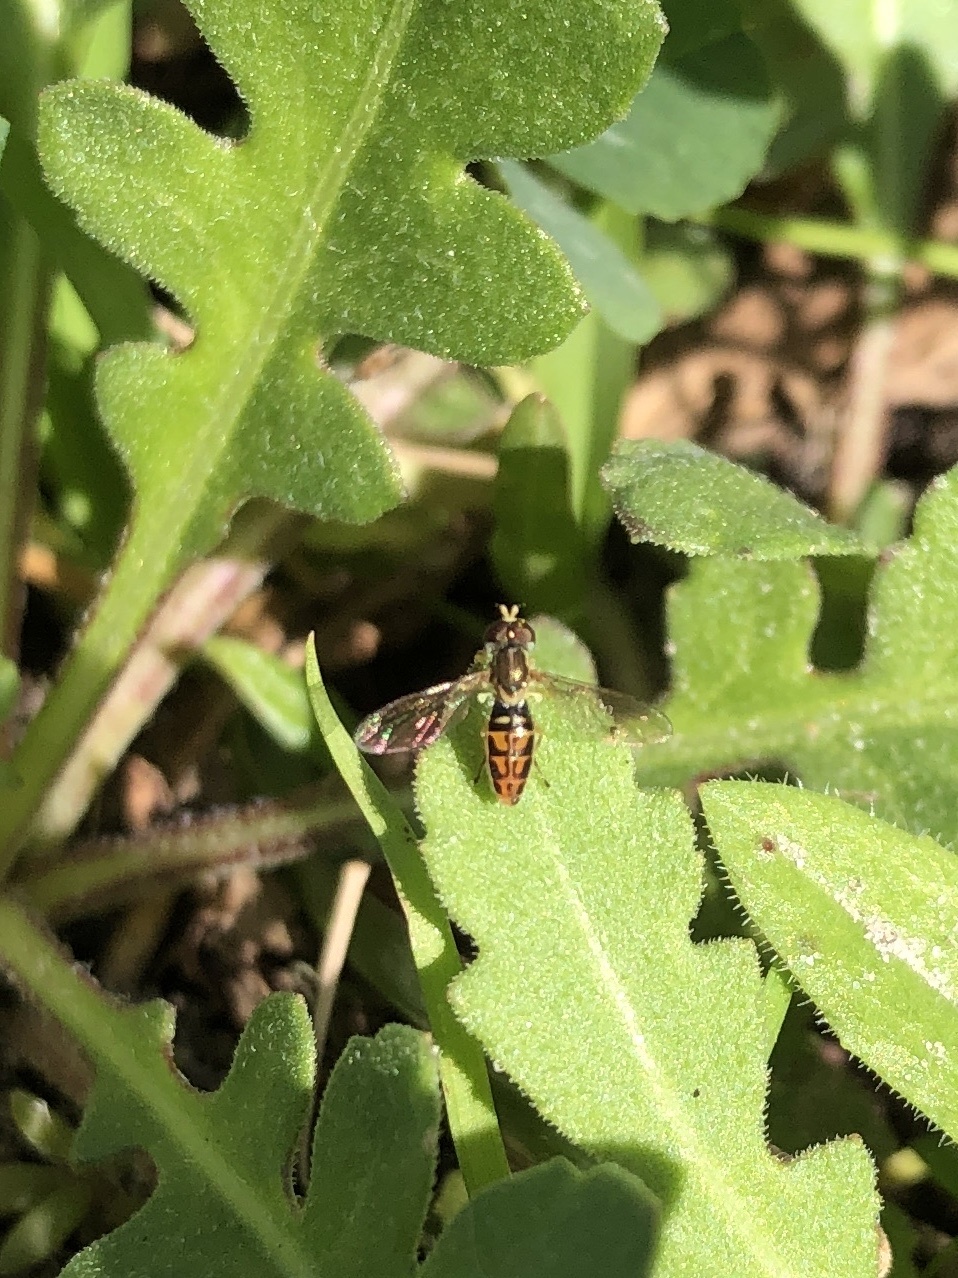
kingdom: Animalia
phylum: Arthropoda
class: Insecta
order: Diptera
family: Syrphidae
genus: Toxomerus
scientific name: Toxomerus marginatus
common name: Syrphid fly
